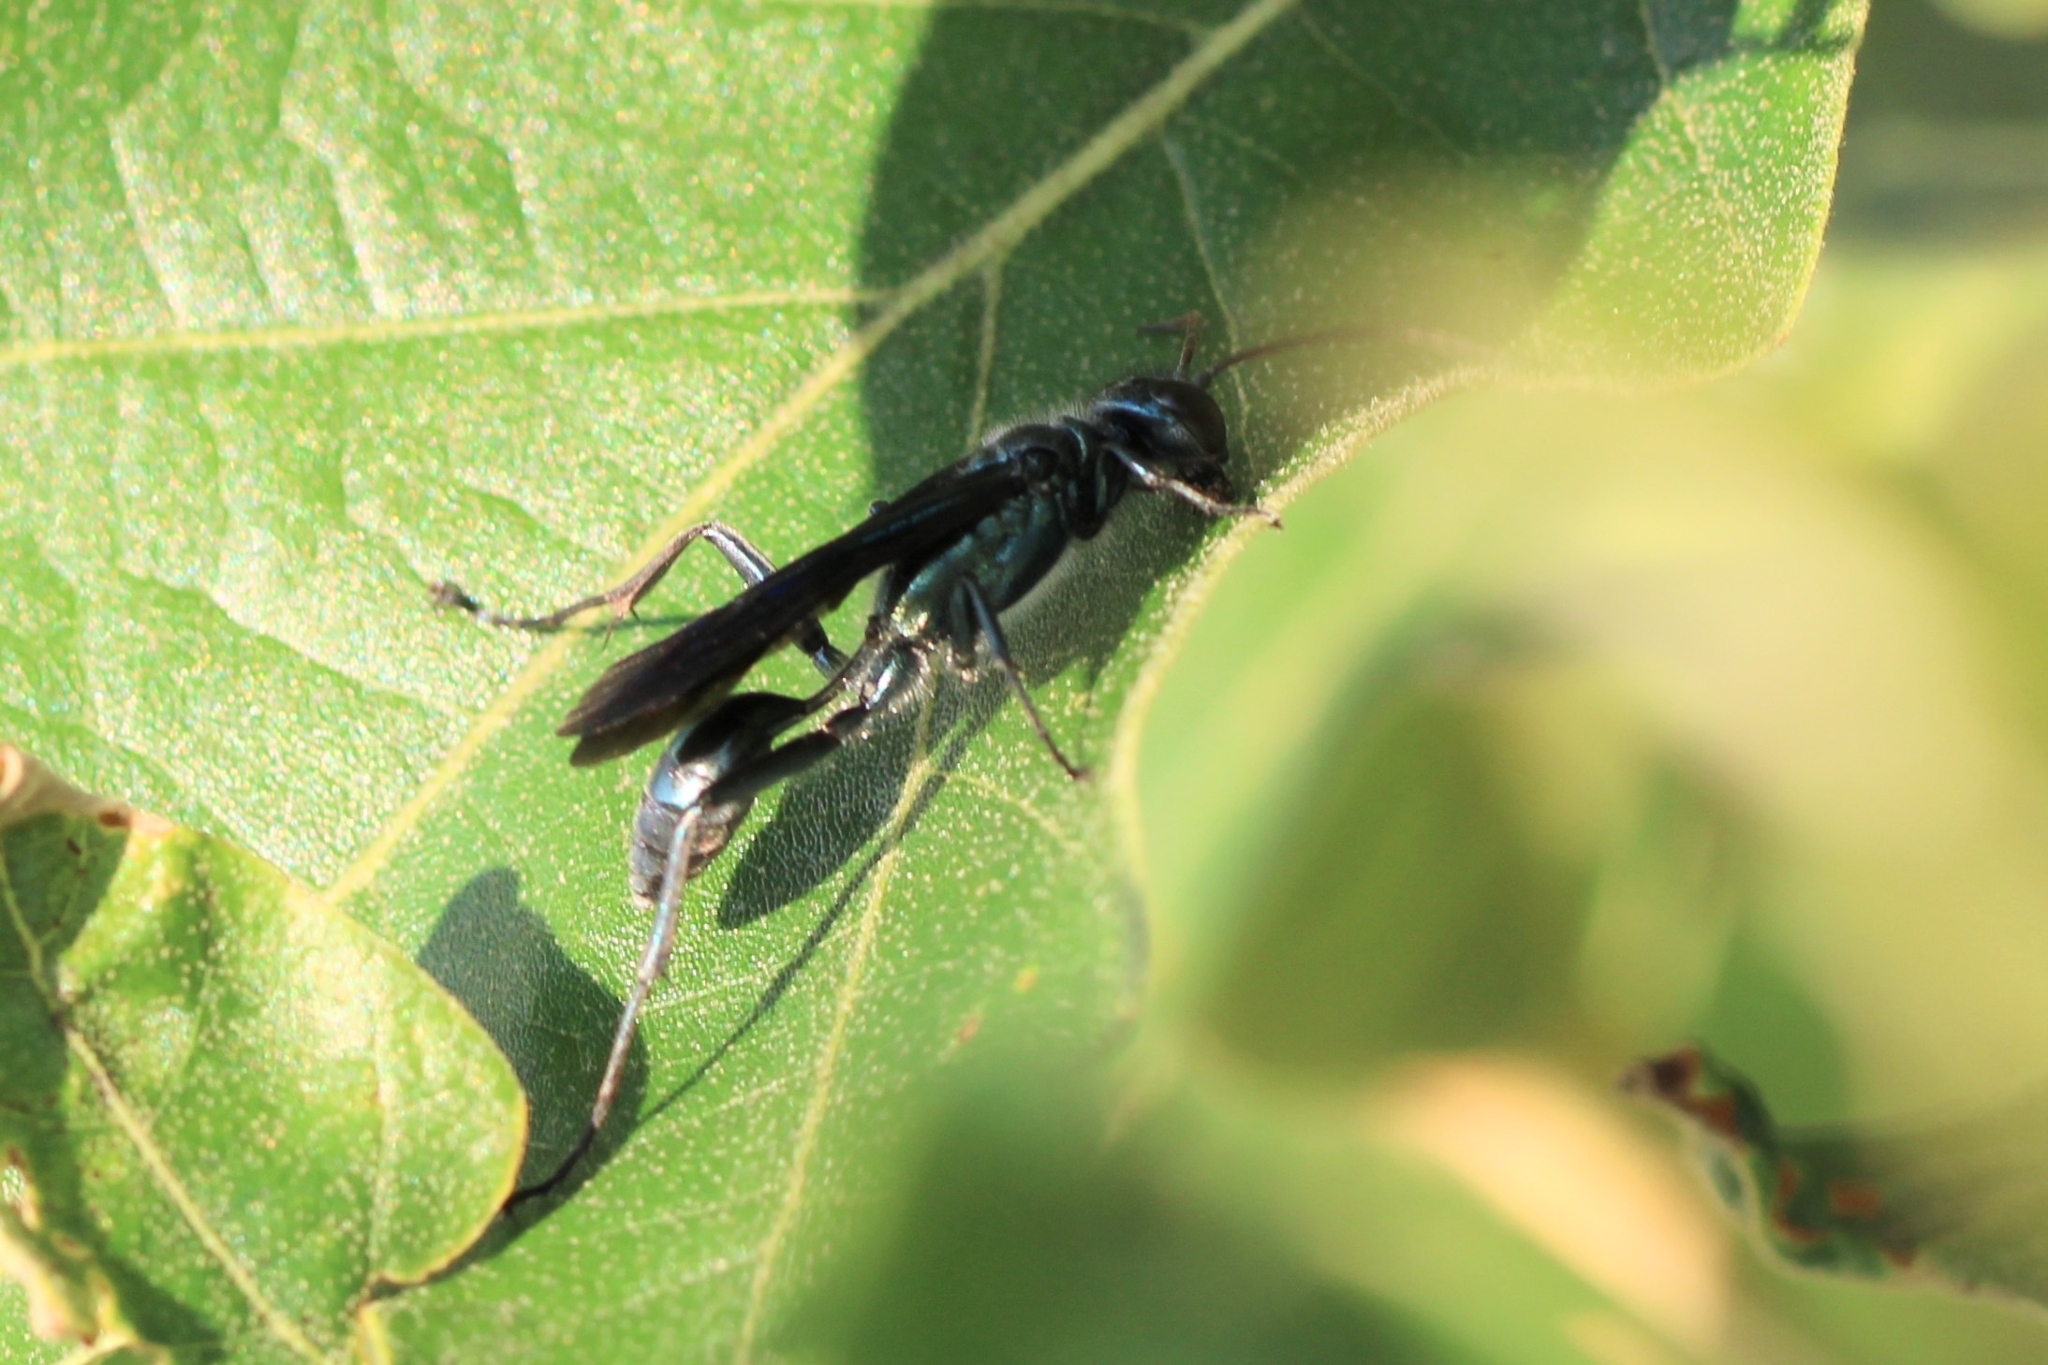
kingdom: Animalia
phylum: Arthropoda
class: Insecta
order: Hymenoptera
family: Sphecidae
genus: Chalybion
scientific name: Chalybion zimmermanni
